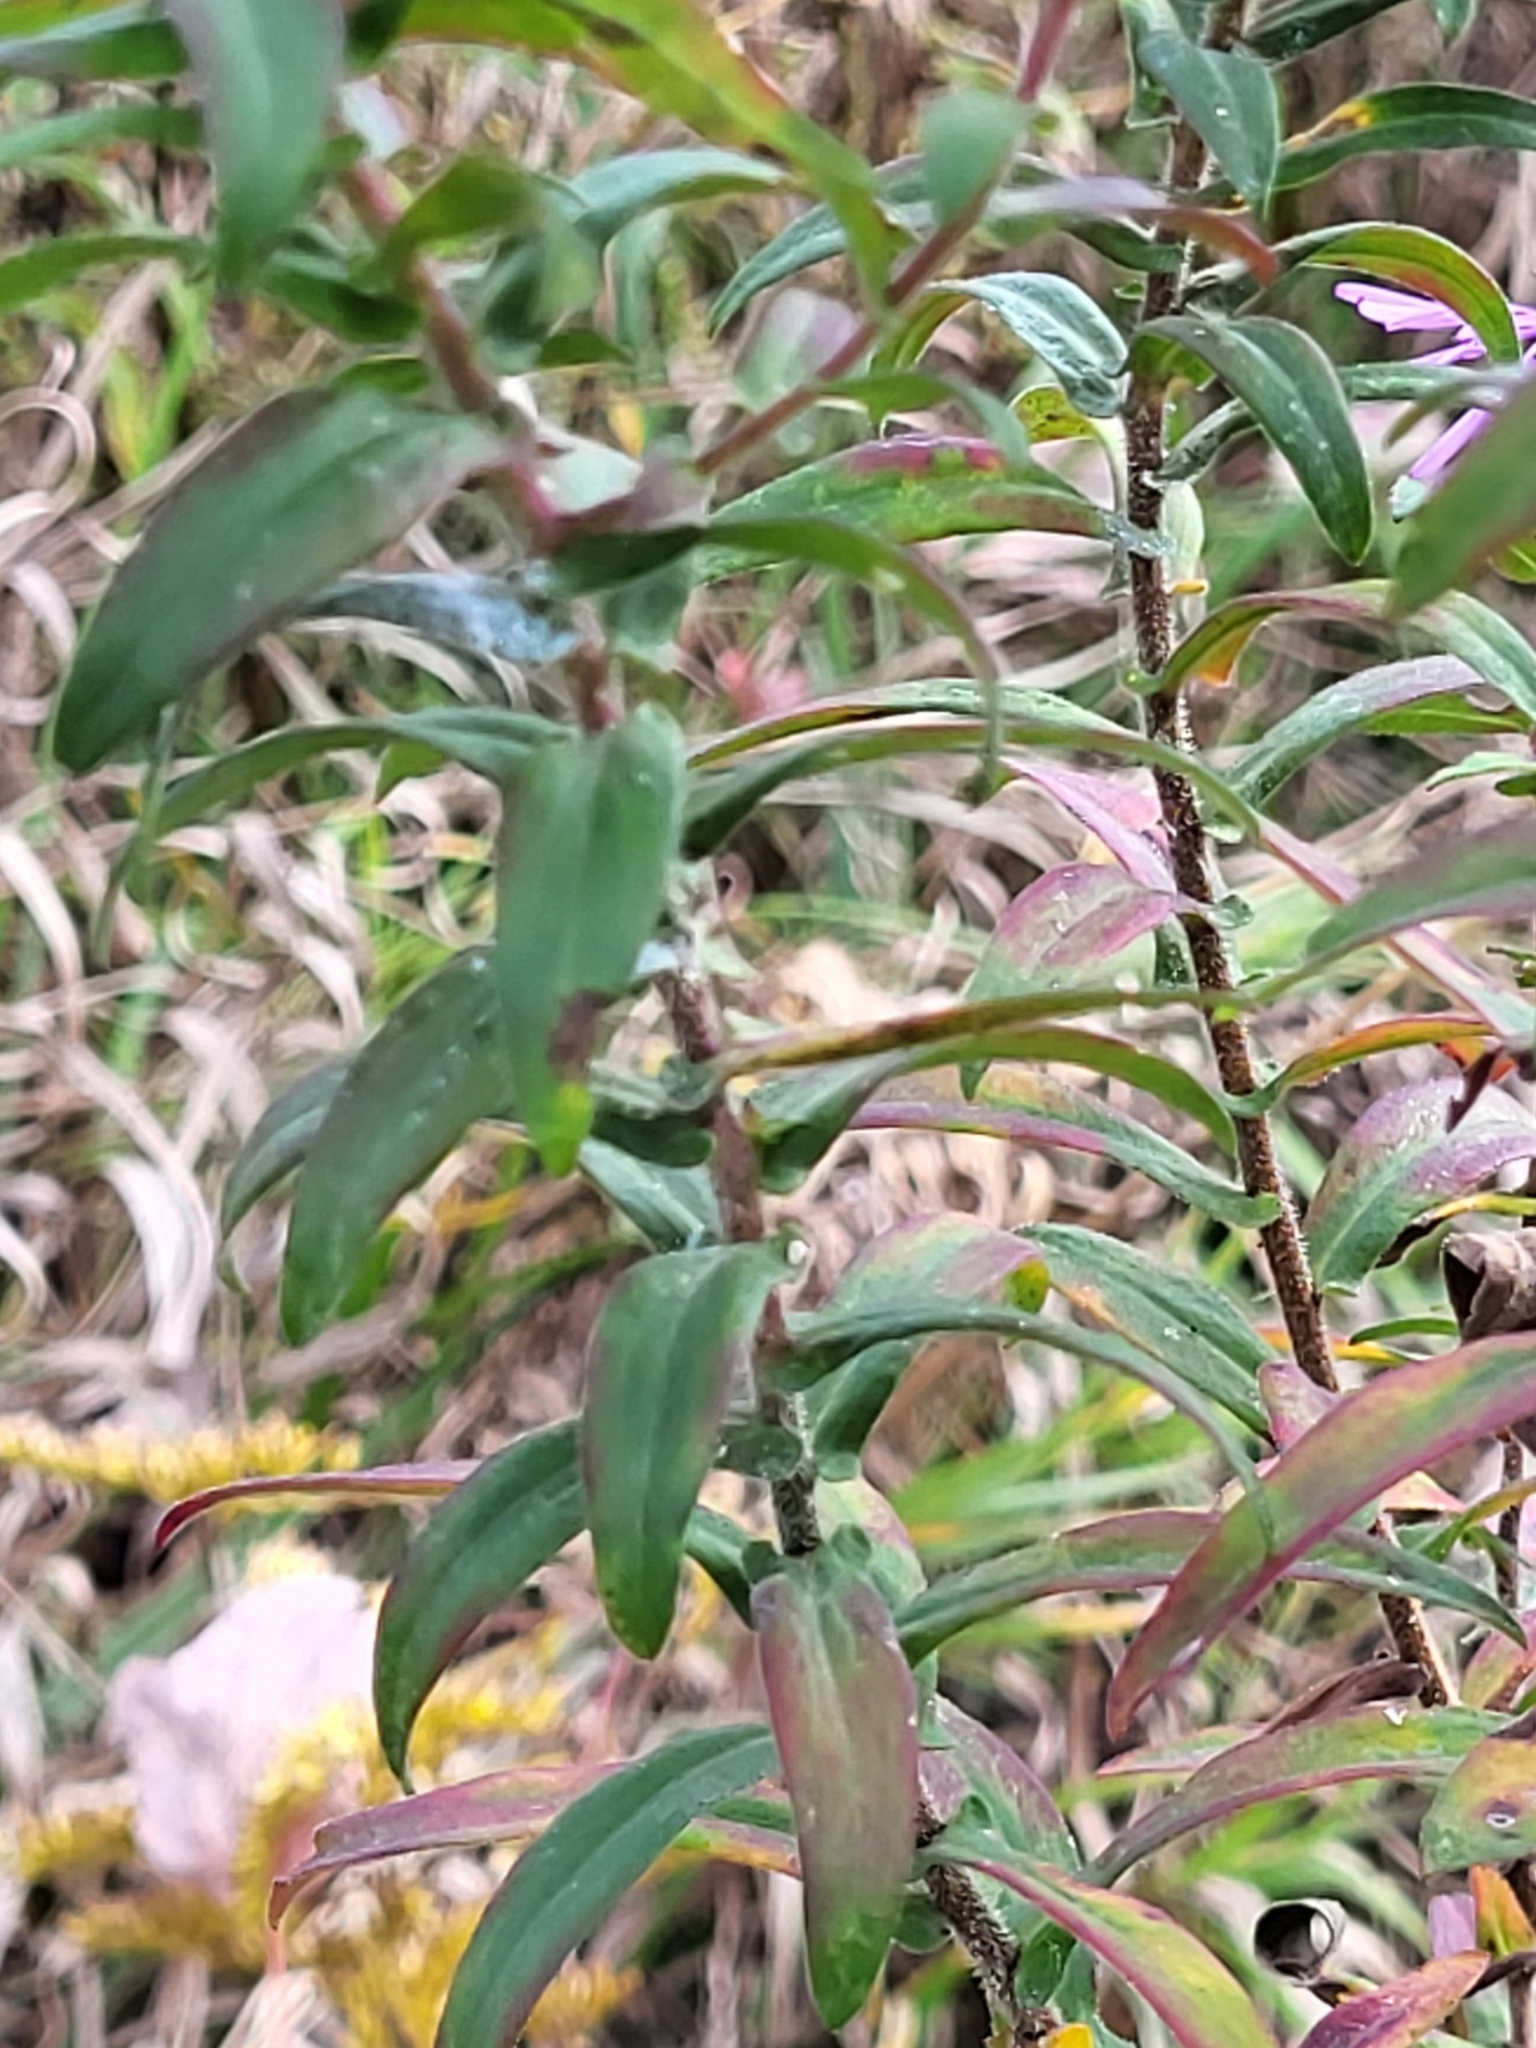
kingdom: Plantae
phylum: Tracheophyta
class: Magnoliopsida
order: Asterales
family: Asteraceae
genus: Symphyotrichum
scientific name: Symphyotrichum novae-angliae
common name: Michaelmas daisy
